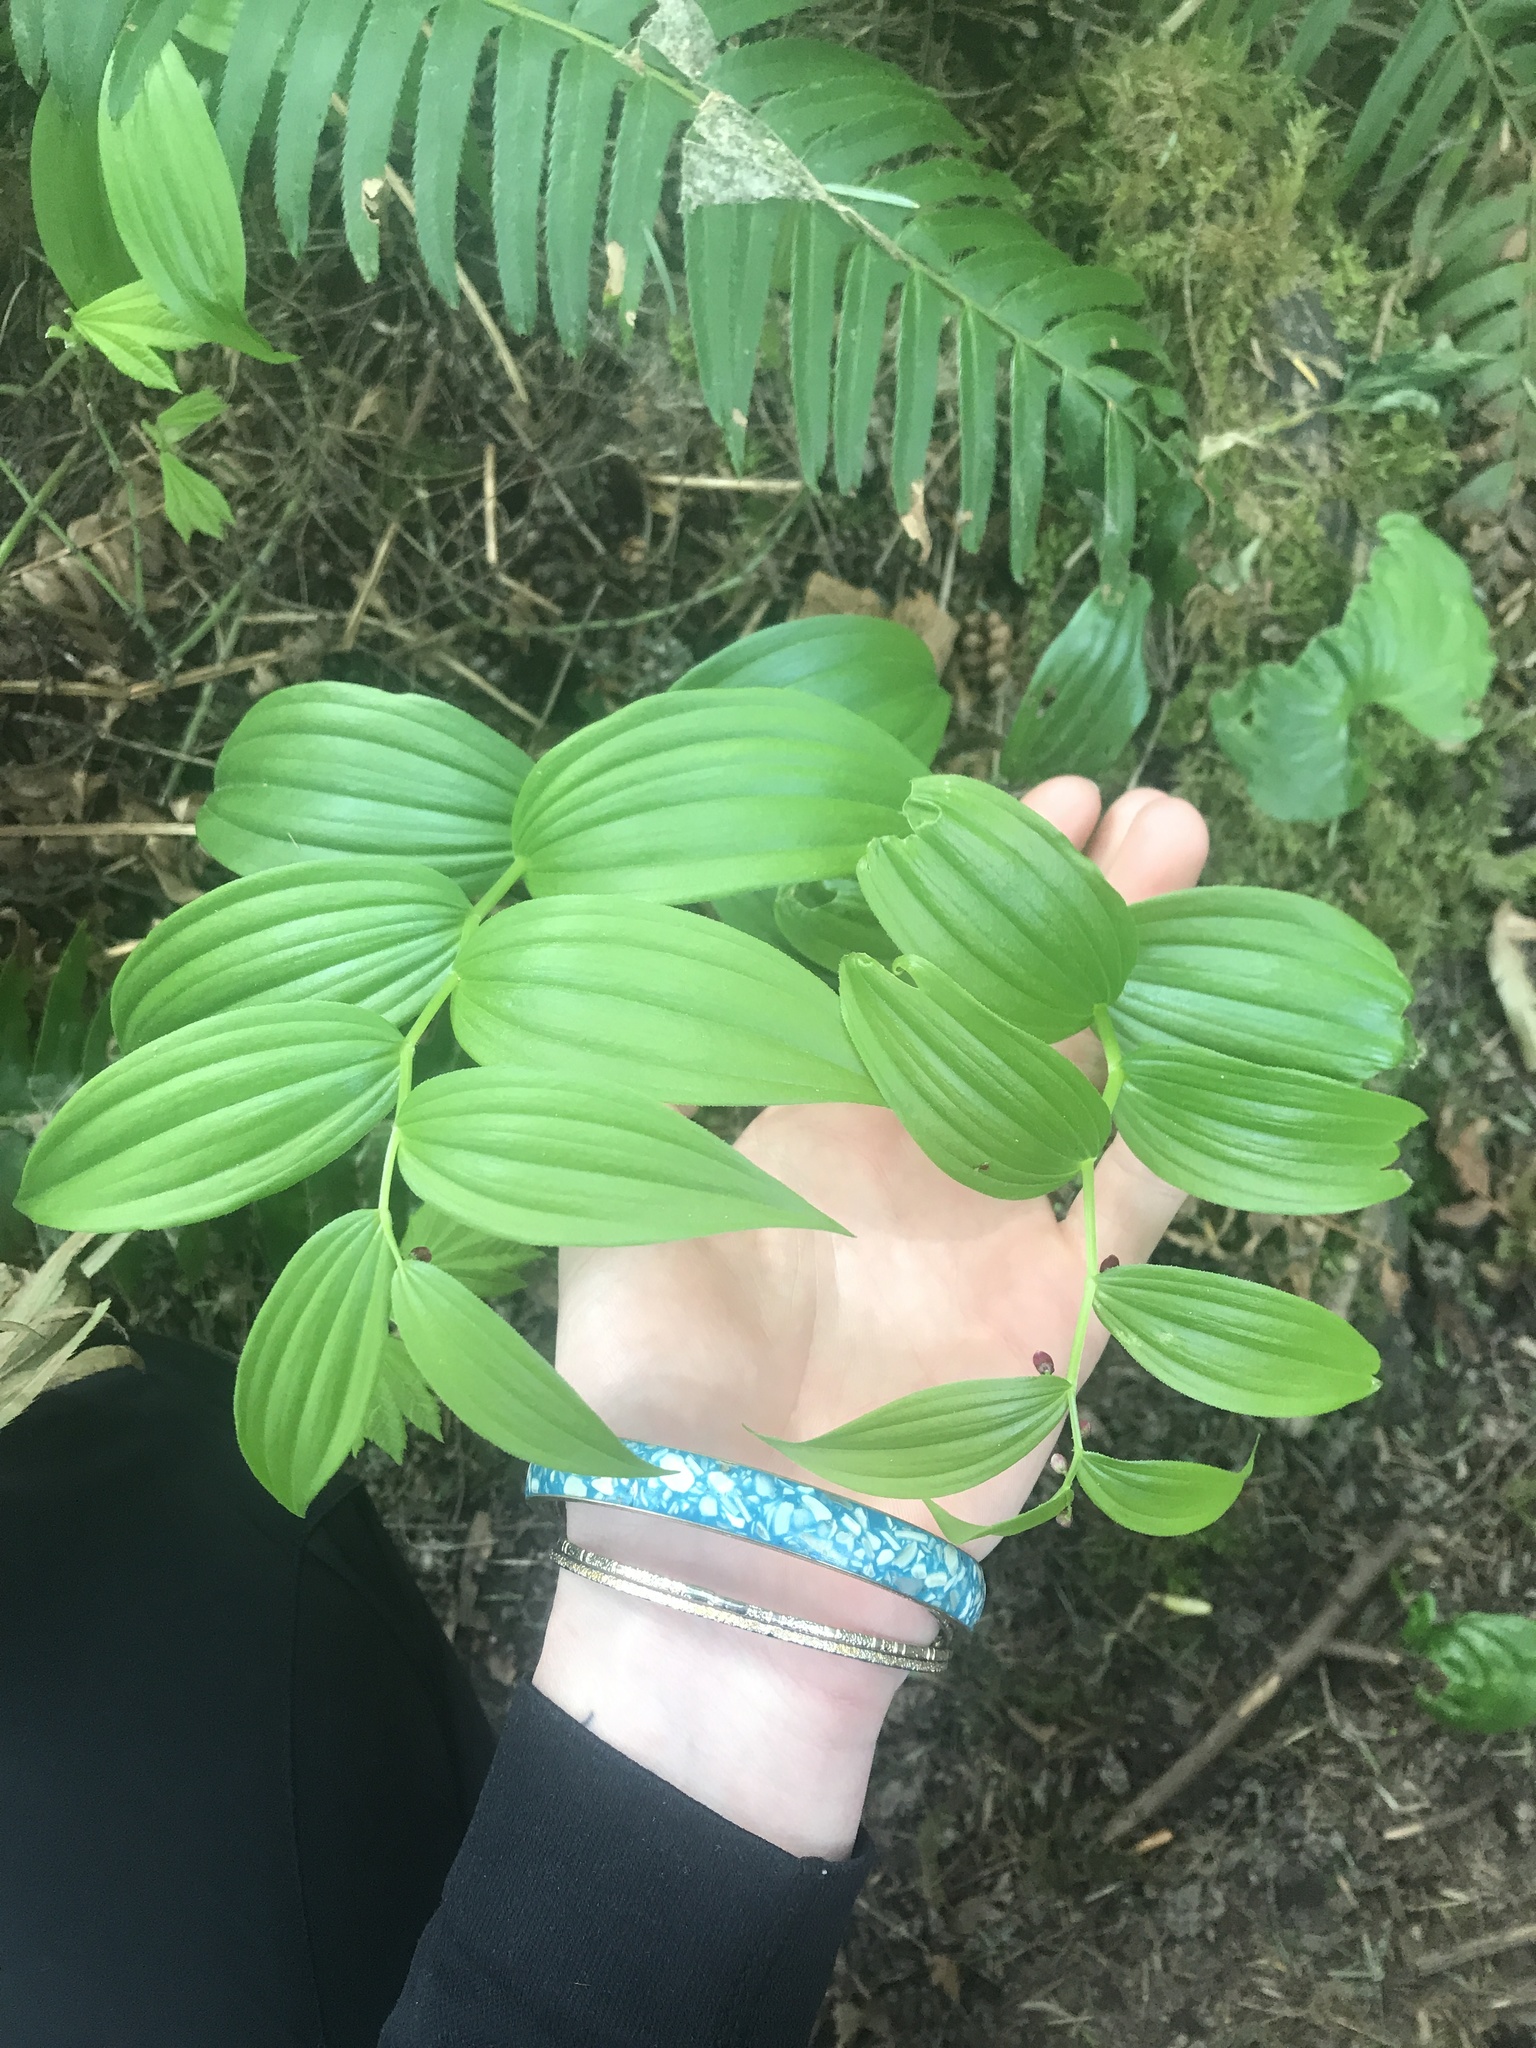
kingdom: Plantae
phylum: Tracheophyta
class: Liliopsida
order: Liliales
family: Liliaceae
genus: Streptopus
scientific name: Streptopus lanceolatus
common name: Rose mandarin
